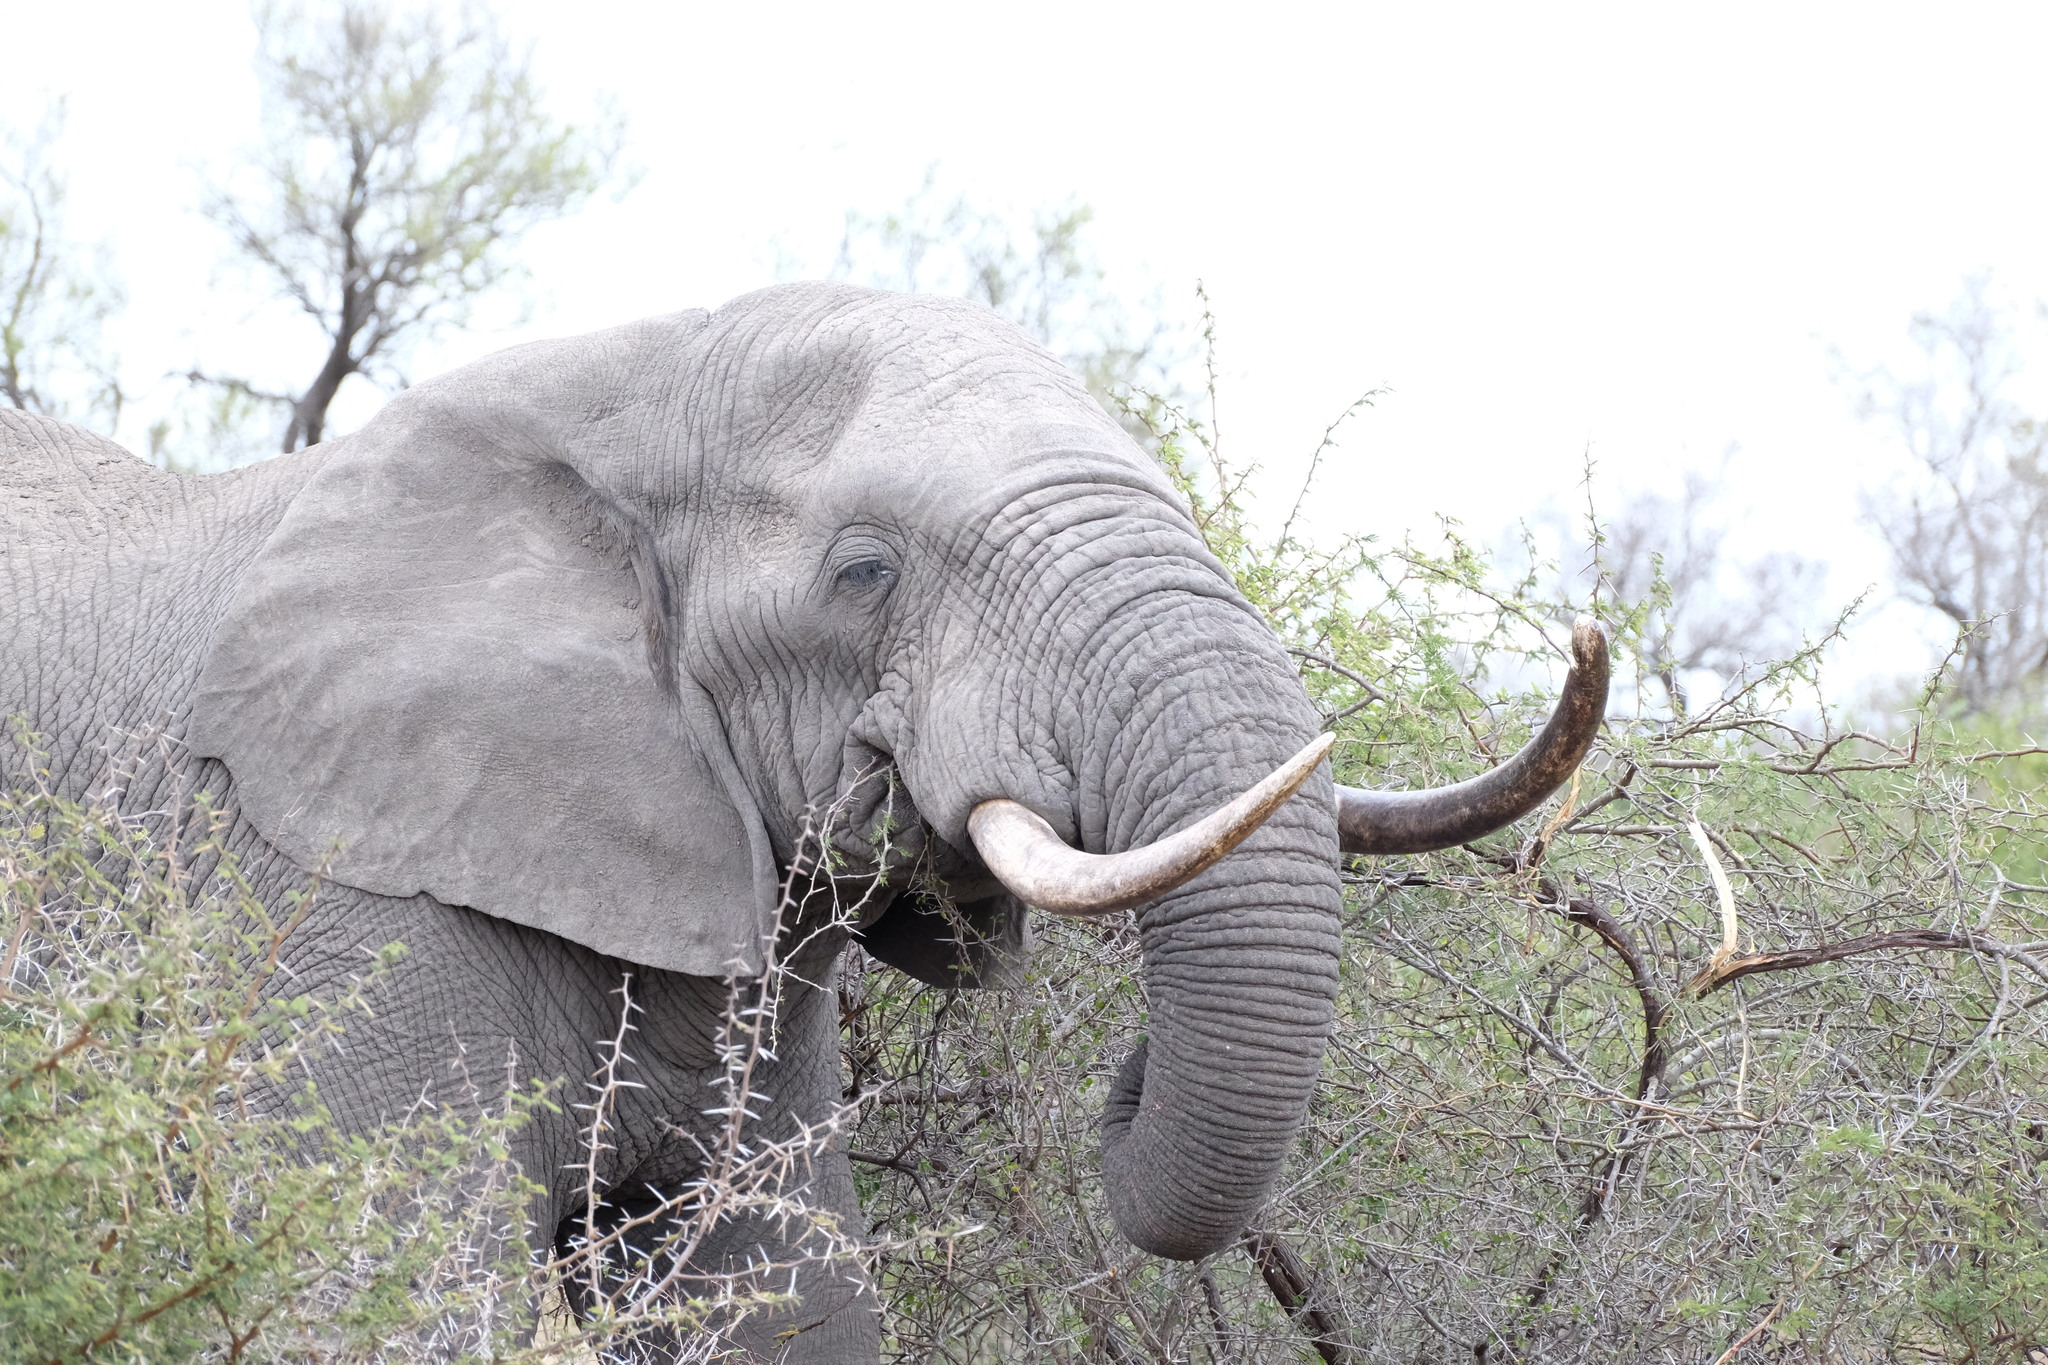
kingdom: Animalia
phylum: Chordata
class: Mammalia
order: Proboscidea
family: Elephantidae
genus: Loxodonta
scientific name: Loxodonta africana
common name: African elephant
